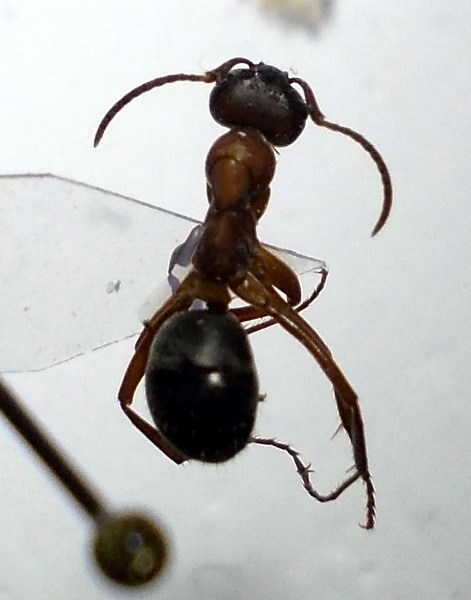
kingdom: Animalia
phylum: Arthropoda
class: Insecta
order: Hymenoptera
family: Formicidae
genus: Formica
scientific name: Formica sanguinea
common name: Blood-red ant
